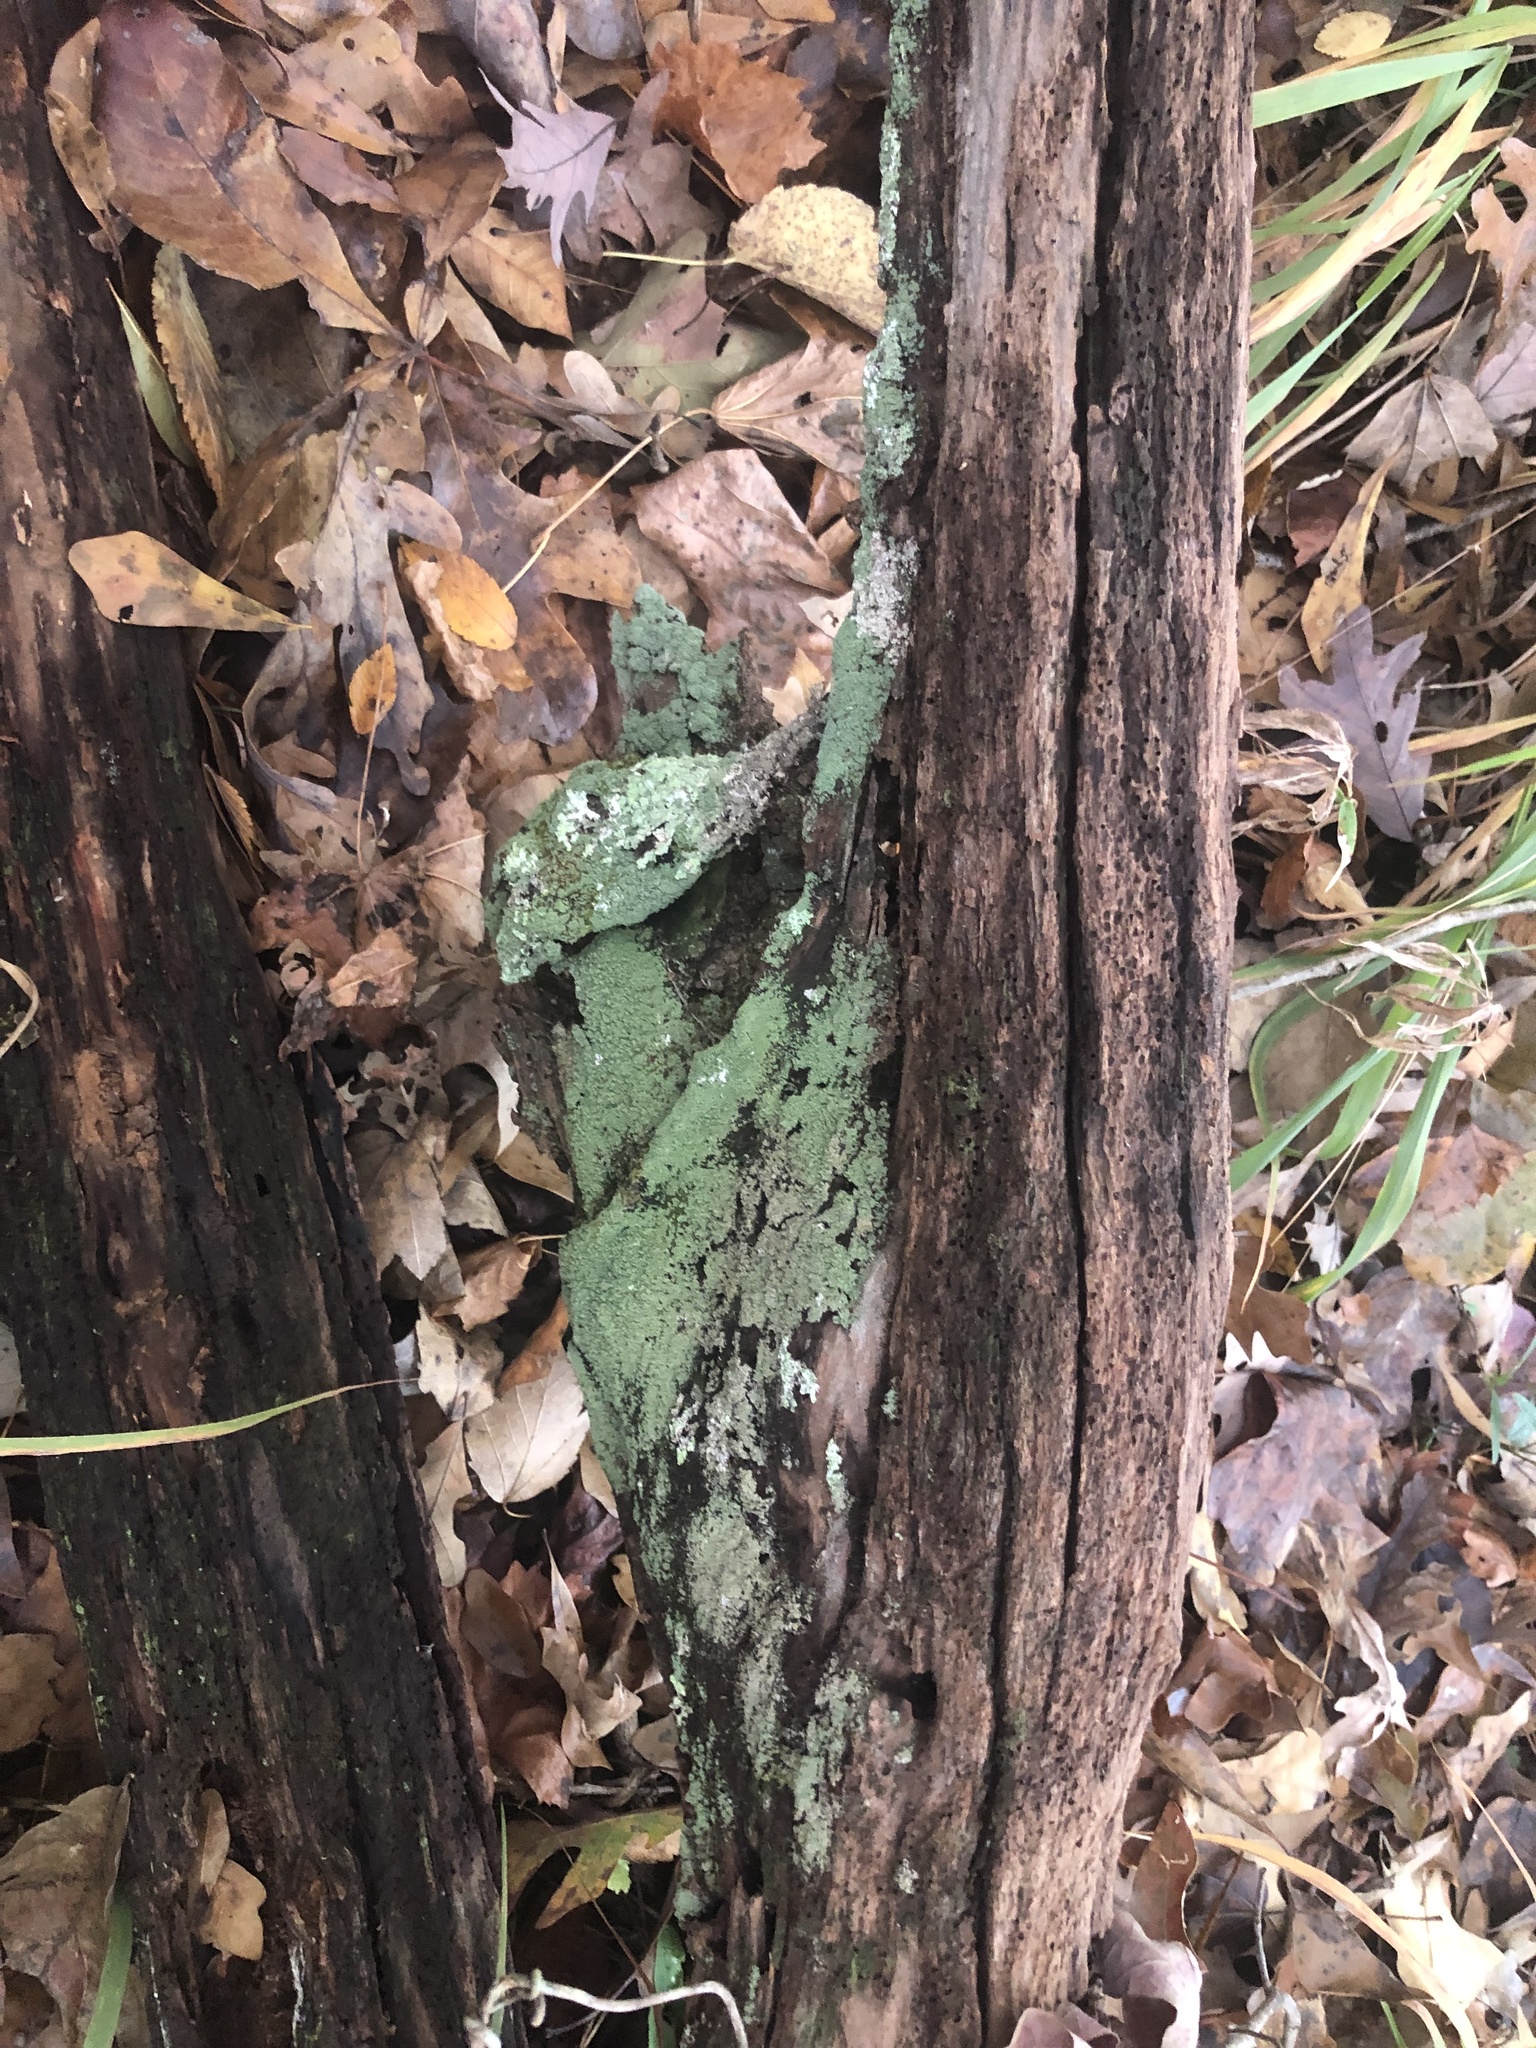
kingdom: Fungi
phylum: Ascomycota
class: Lecanoromycetes
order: Lecanorales
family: Cladoniaceae
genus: Cladonia
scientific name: Cladonia
